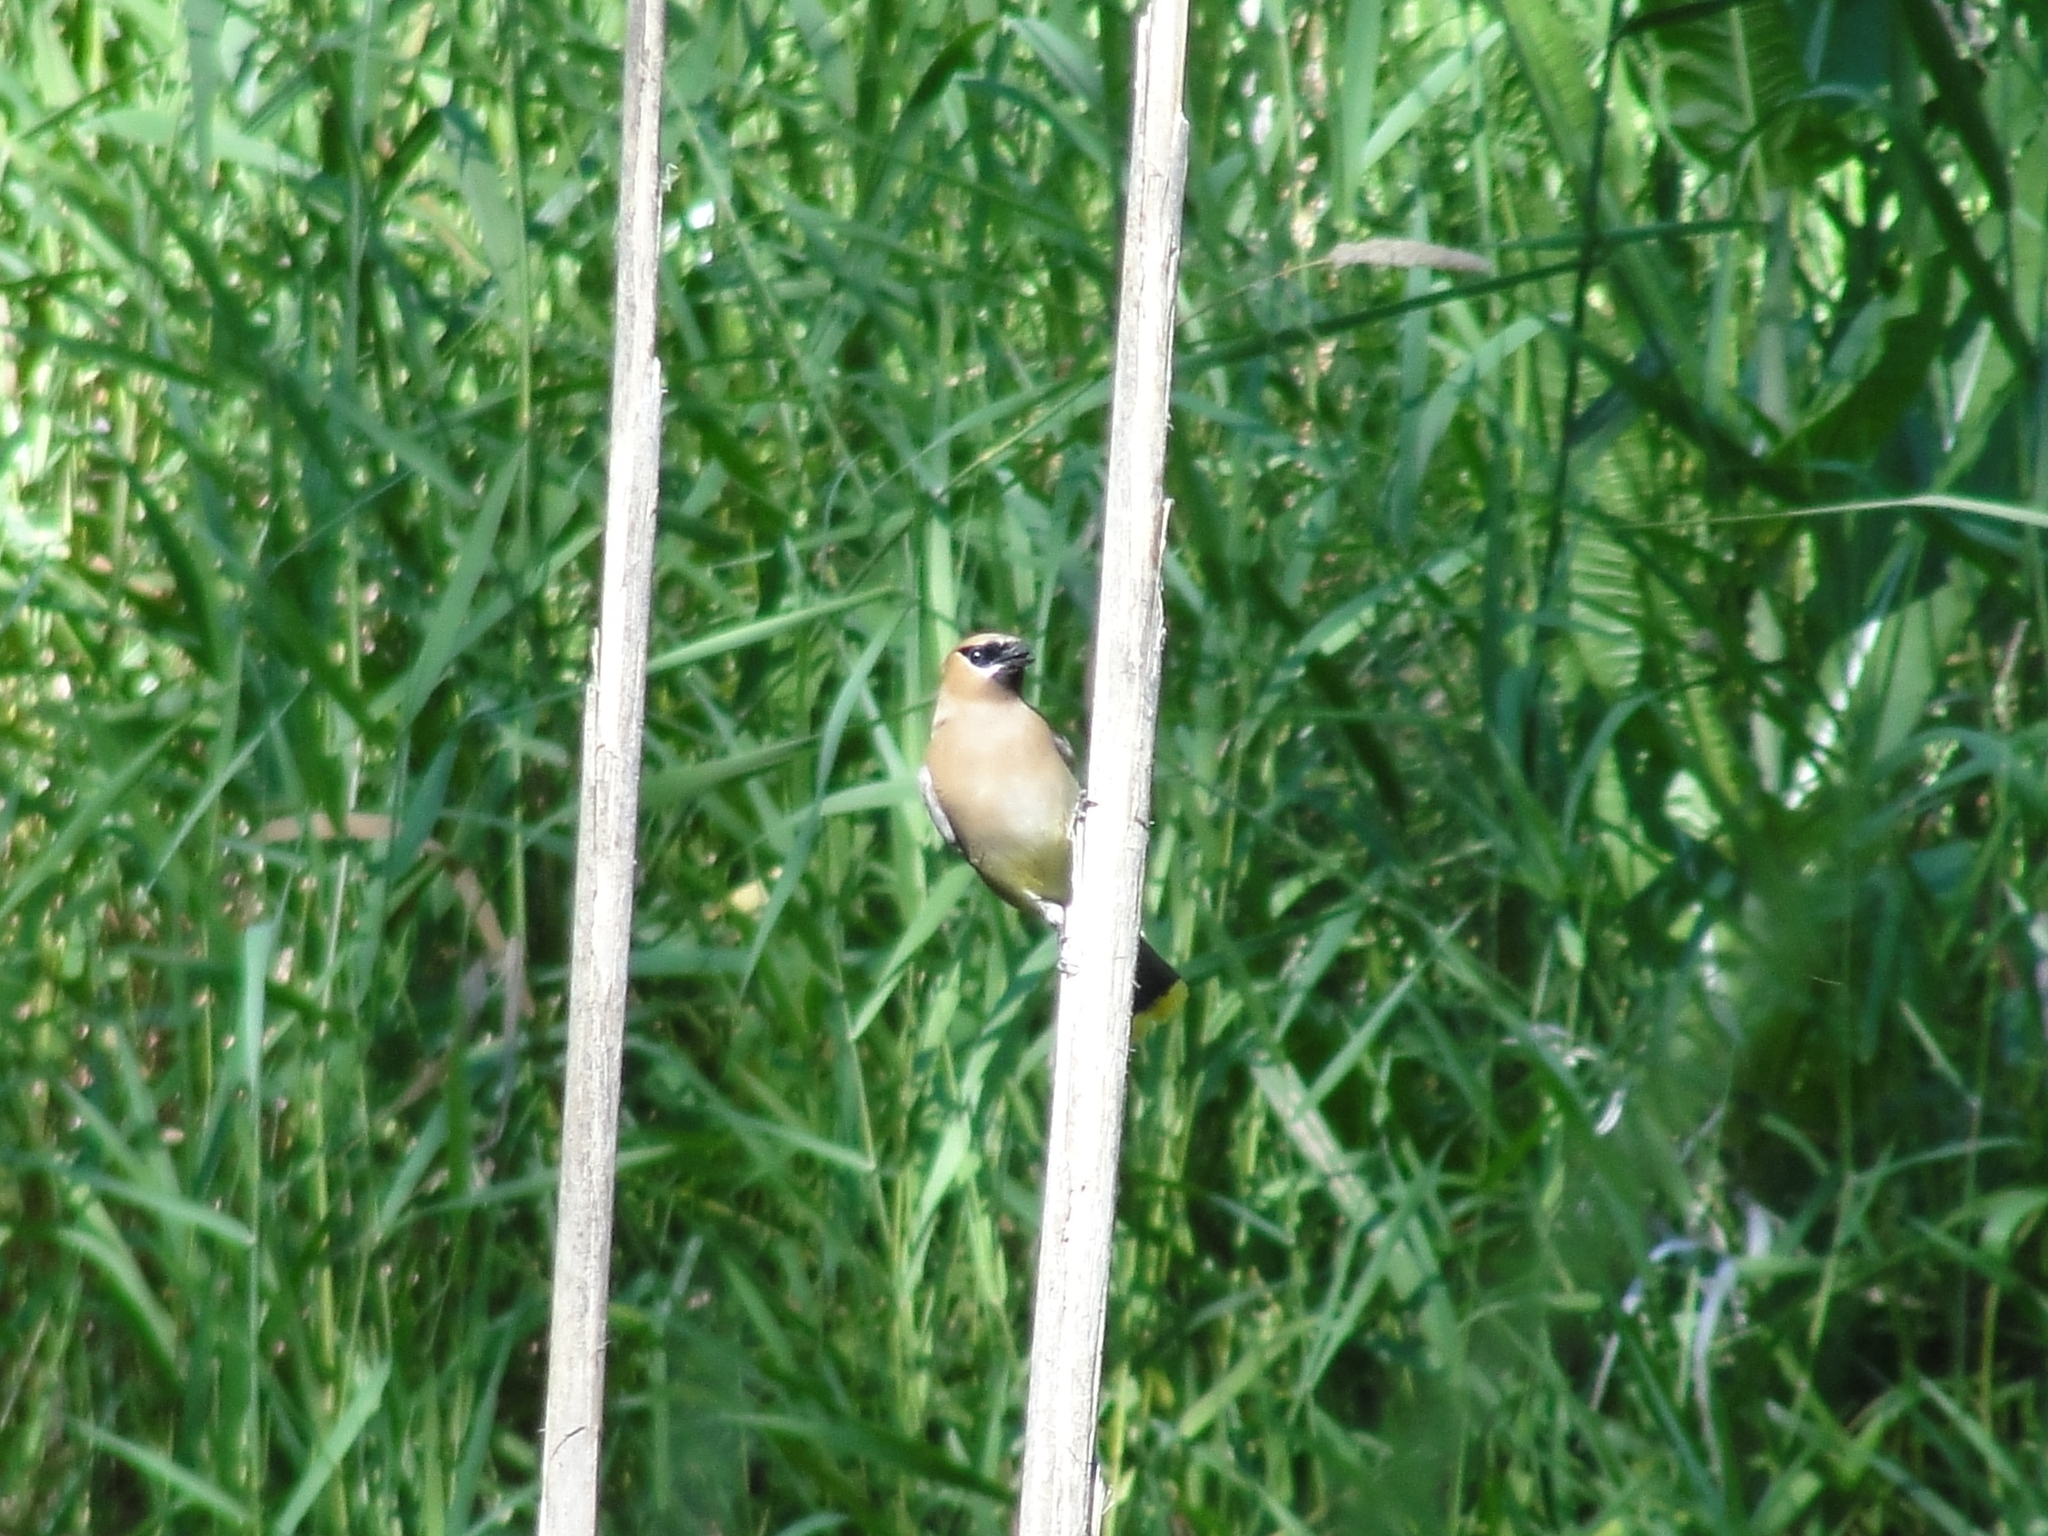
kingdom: Animalia
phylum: Chordata
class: Aves
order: Passeriformes
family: Bombycillidae
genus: Bombycilla
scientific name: Bombycilla cedrorum
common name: Cedar waxwing
